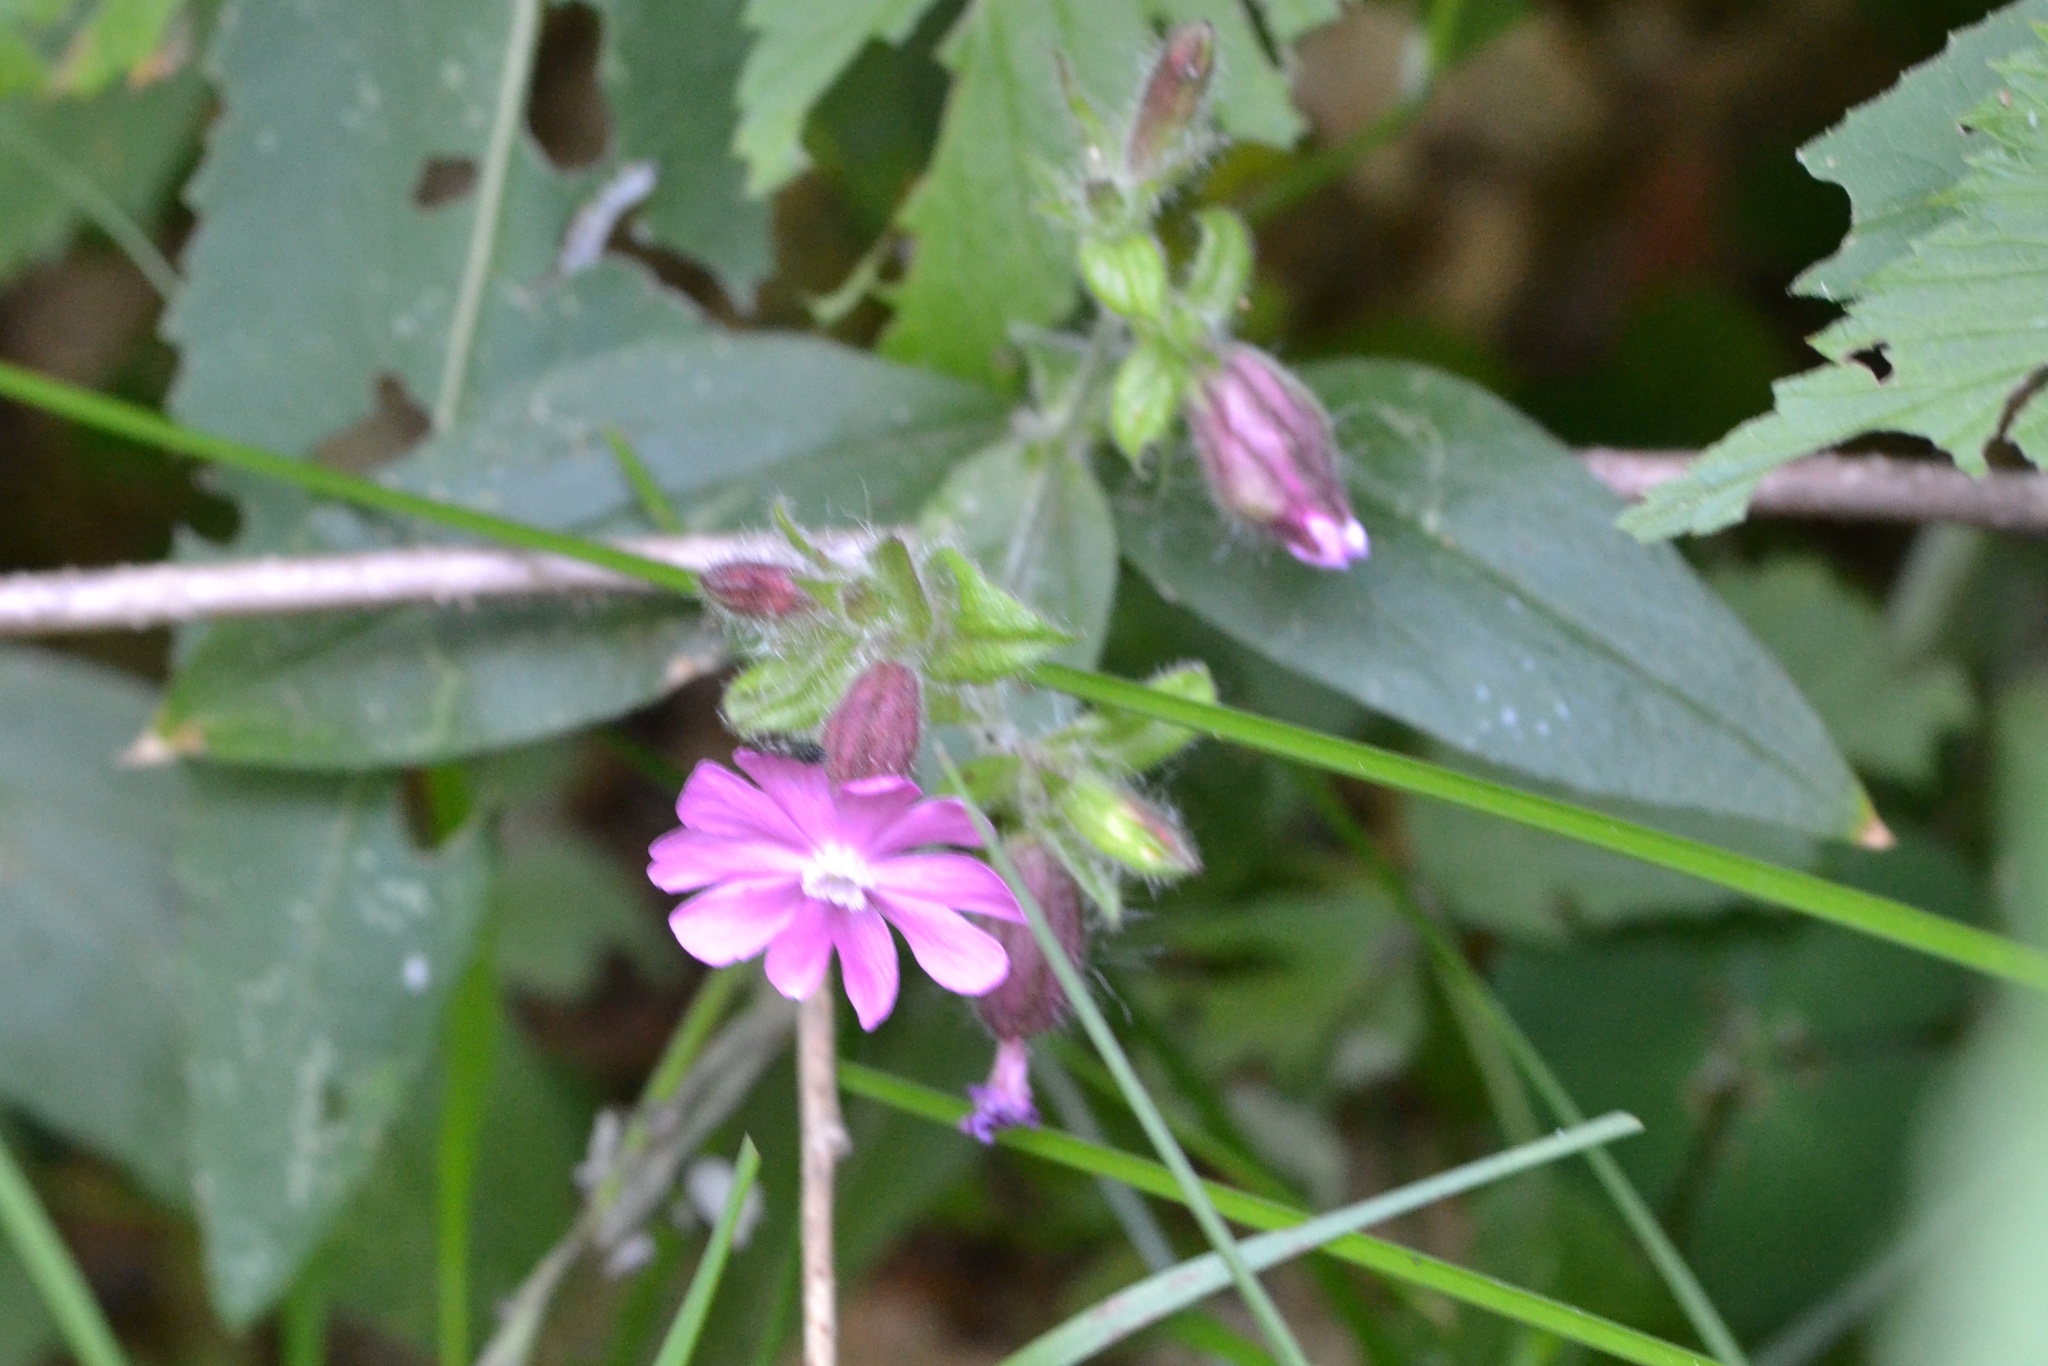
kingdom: Plantae
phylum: Tracheophyta
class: Magnoliopsida
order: Caryophyllales
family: Caryophyllaceae
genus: Silene
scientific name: Silene dioica
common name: Red campion
